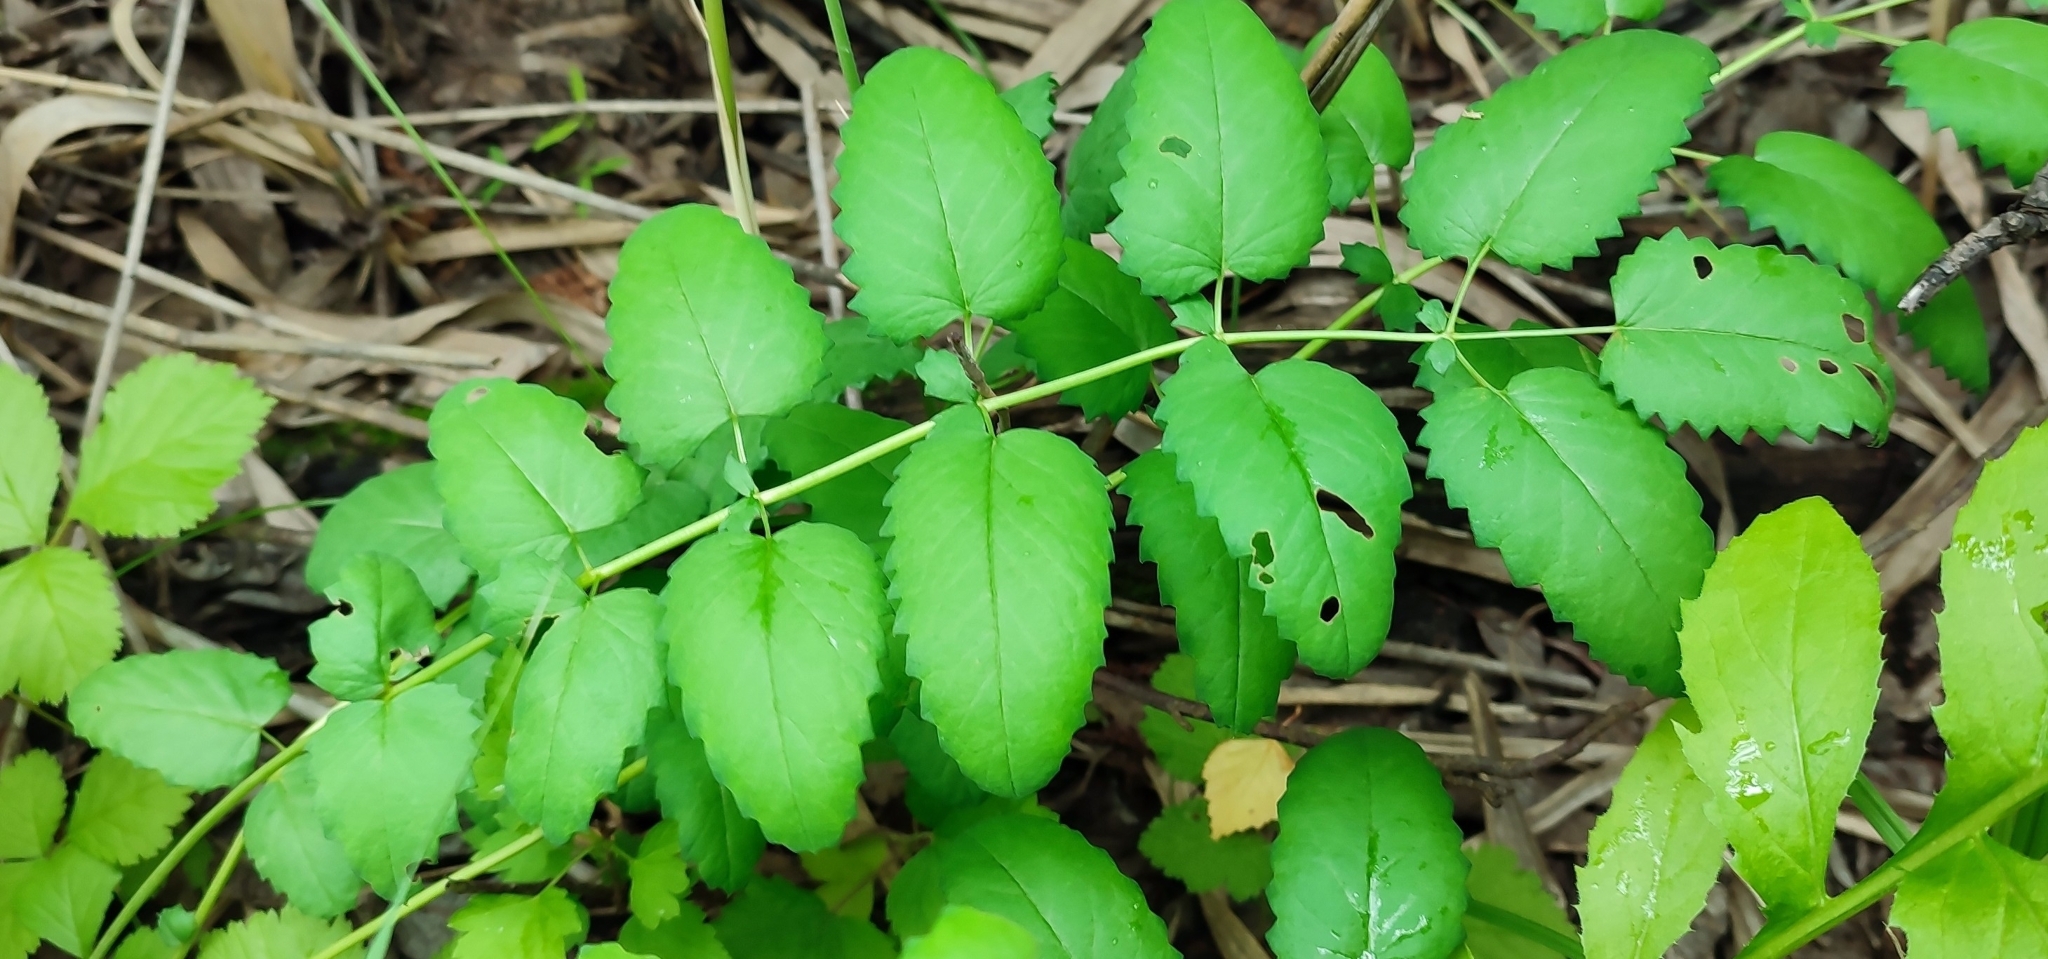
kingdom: Plantae
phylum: Tracheophyta
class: Magnoliopsida
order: Rosales
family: Rosaceae
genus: Sanguisorba
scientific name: Sanguisorba officinalis
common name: Great burnet
